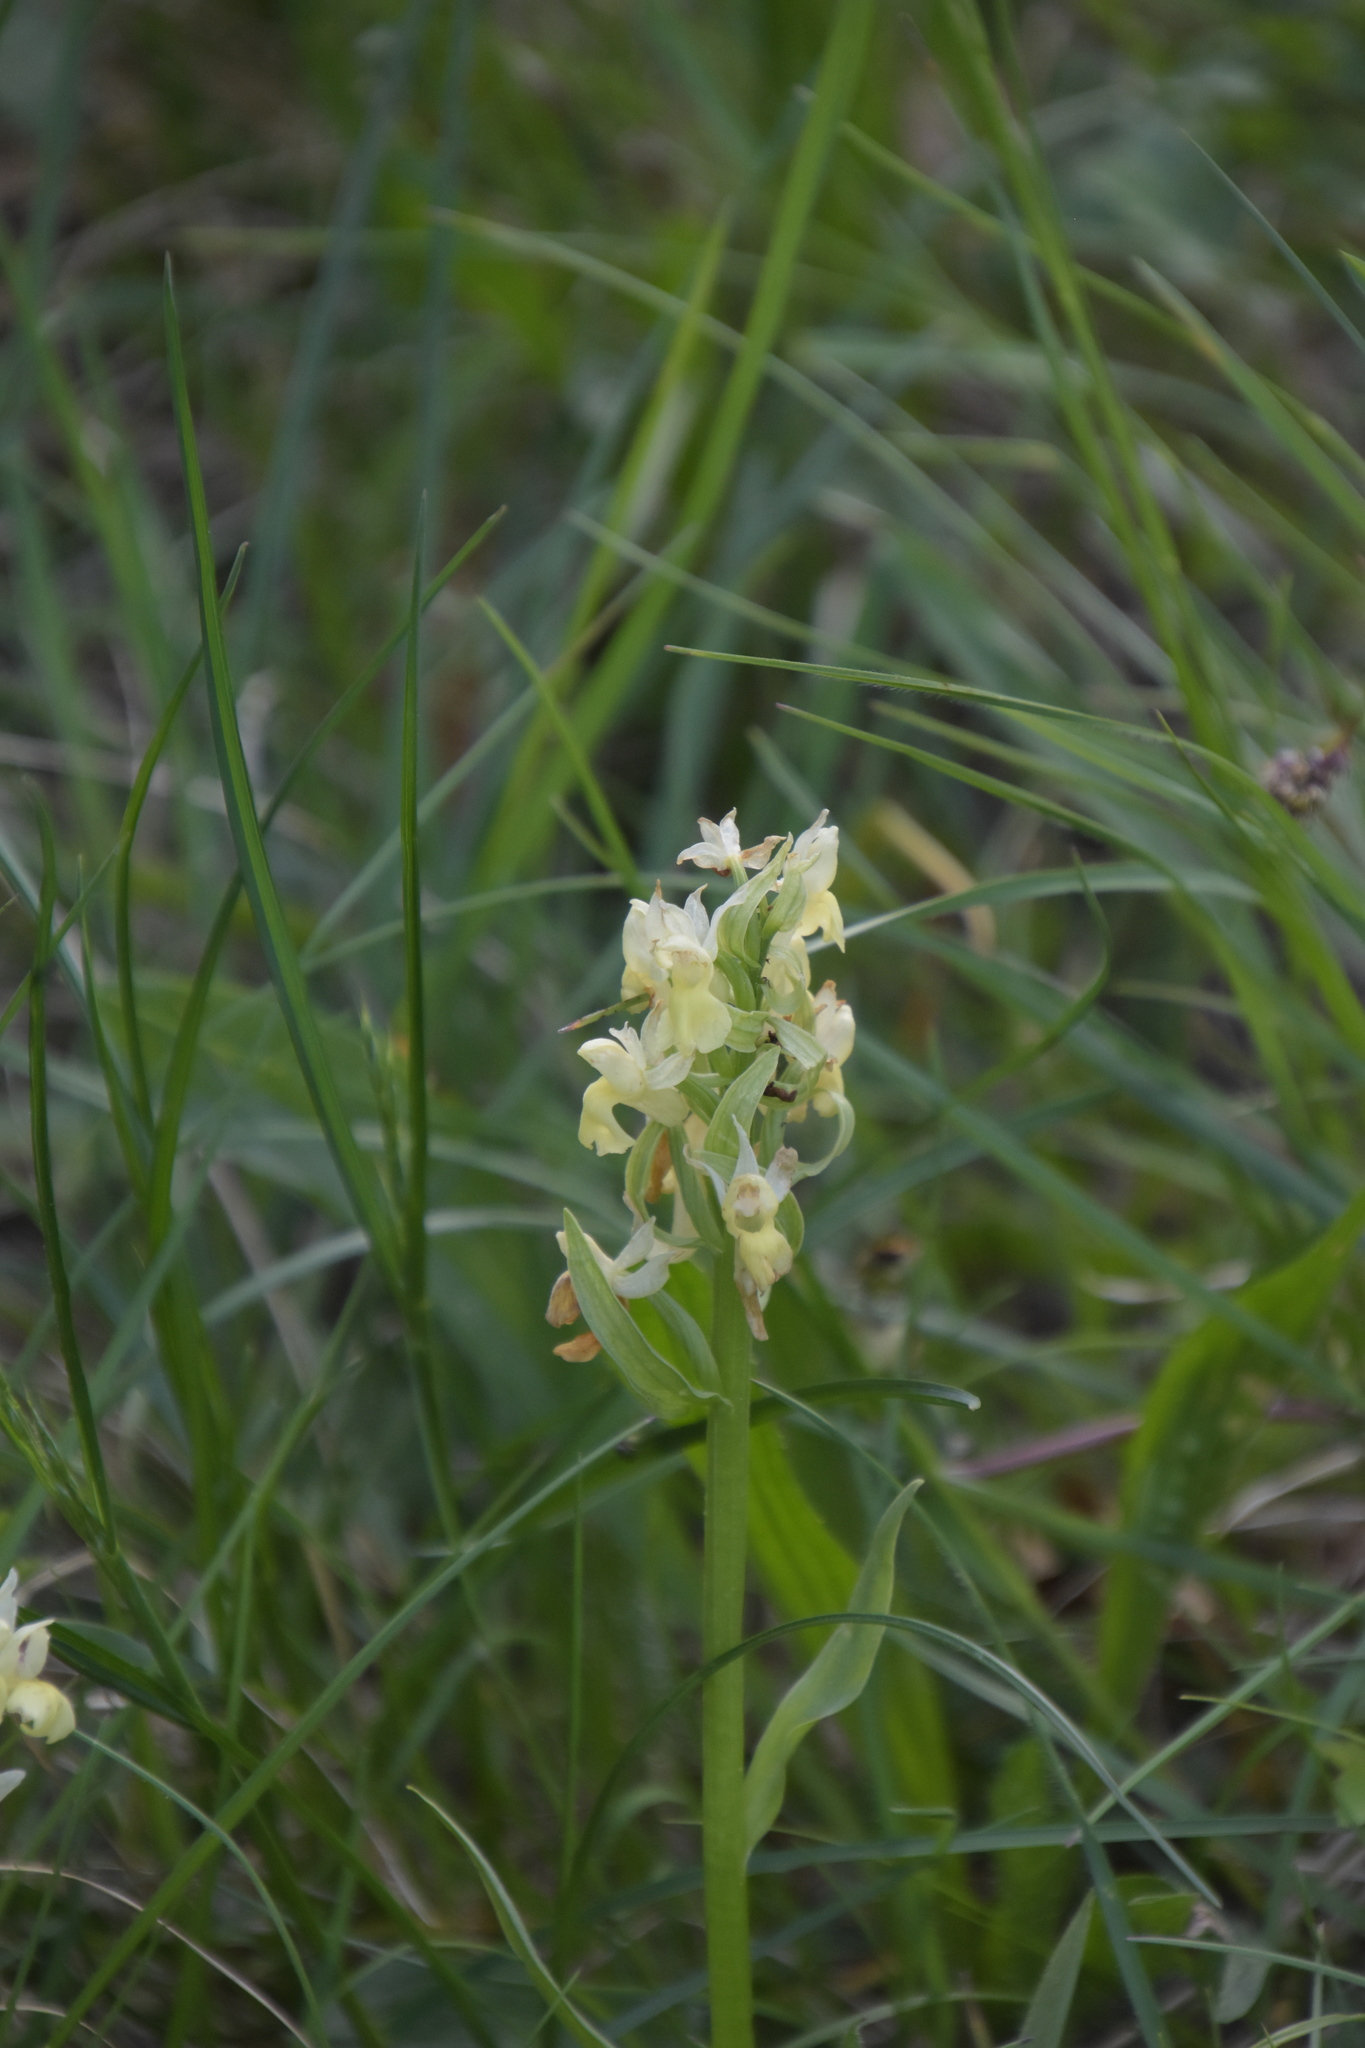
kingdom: Plantae
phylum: Tracheophyta
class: Liliopsida
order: Asparagales
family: Orchidaceae
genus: Dactylorhiza
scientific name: Dactylorhiza sambucina
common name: Elder-flowered orchid
